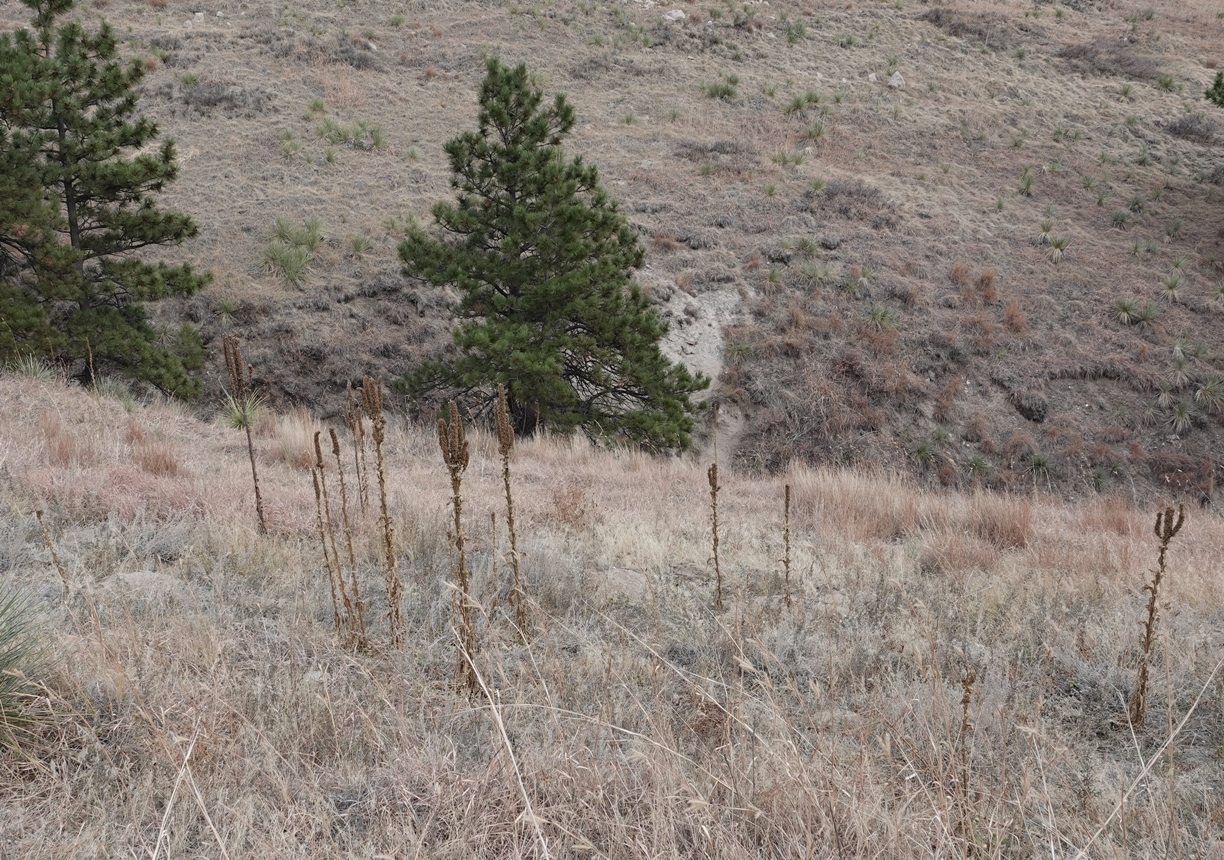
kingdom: Plantae
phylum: Tracheophyta
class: Magnoliopsida
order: Lamiales
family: Scrophulariaceae
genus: Verbascum
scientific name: Verbascum thapsus
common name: Common mullein
